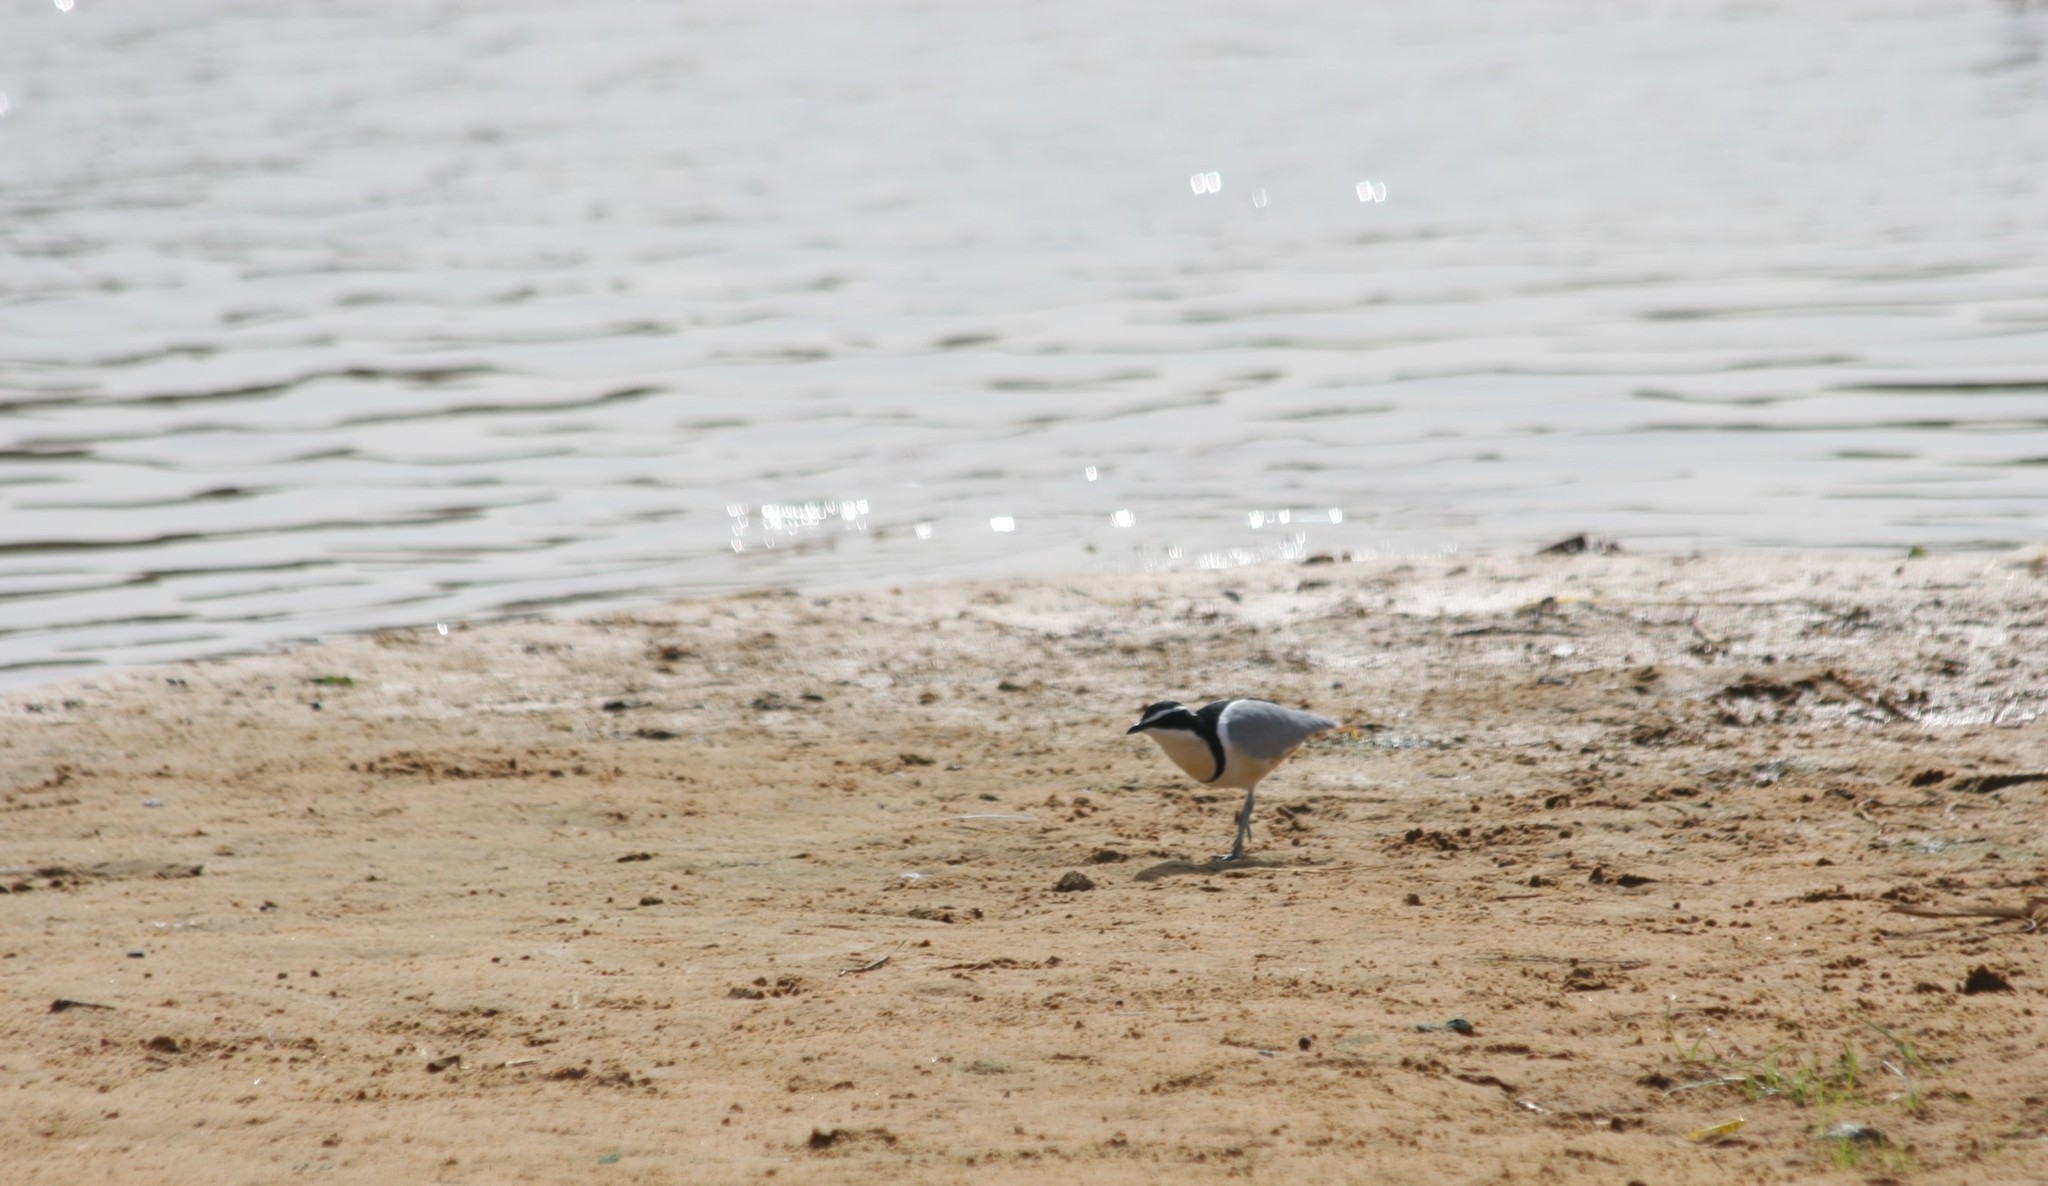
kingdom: Animalia
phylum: Chordata
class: Aves
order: Charadriiformes
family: Pluvianidae
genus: Pluvianus
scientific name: Pluvianus aegyptius
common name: Egyptian plover
